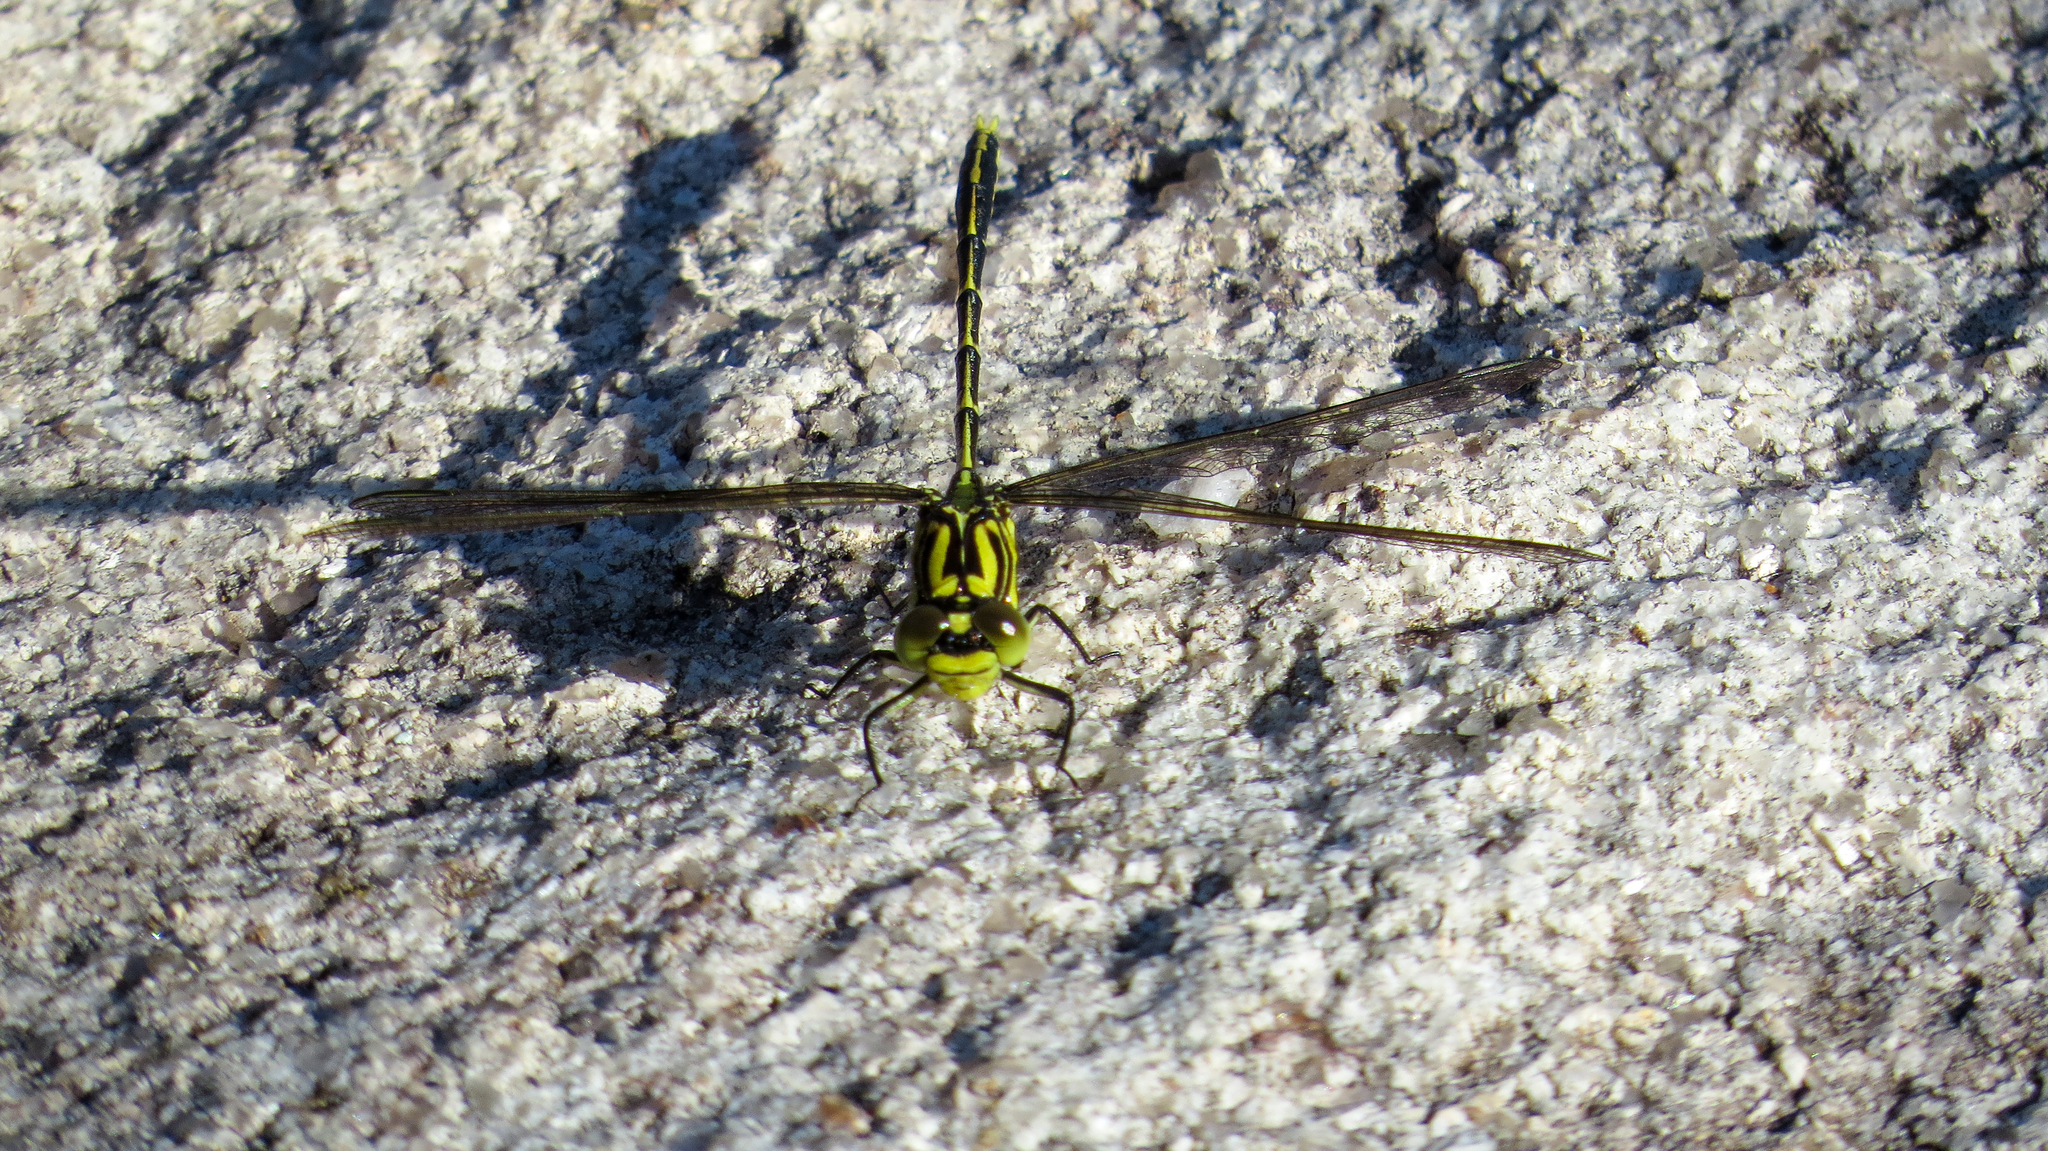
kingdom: Animalia
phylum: Arthropoda
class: Insecta
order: Odonata
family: Gomphidae
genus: Austrogomphus
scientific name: Austrogomphus guerini
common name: Yellow-striped hunter
